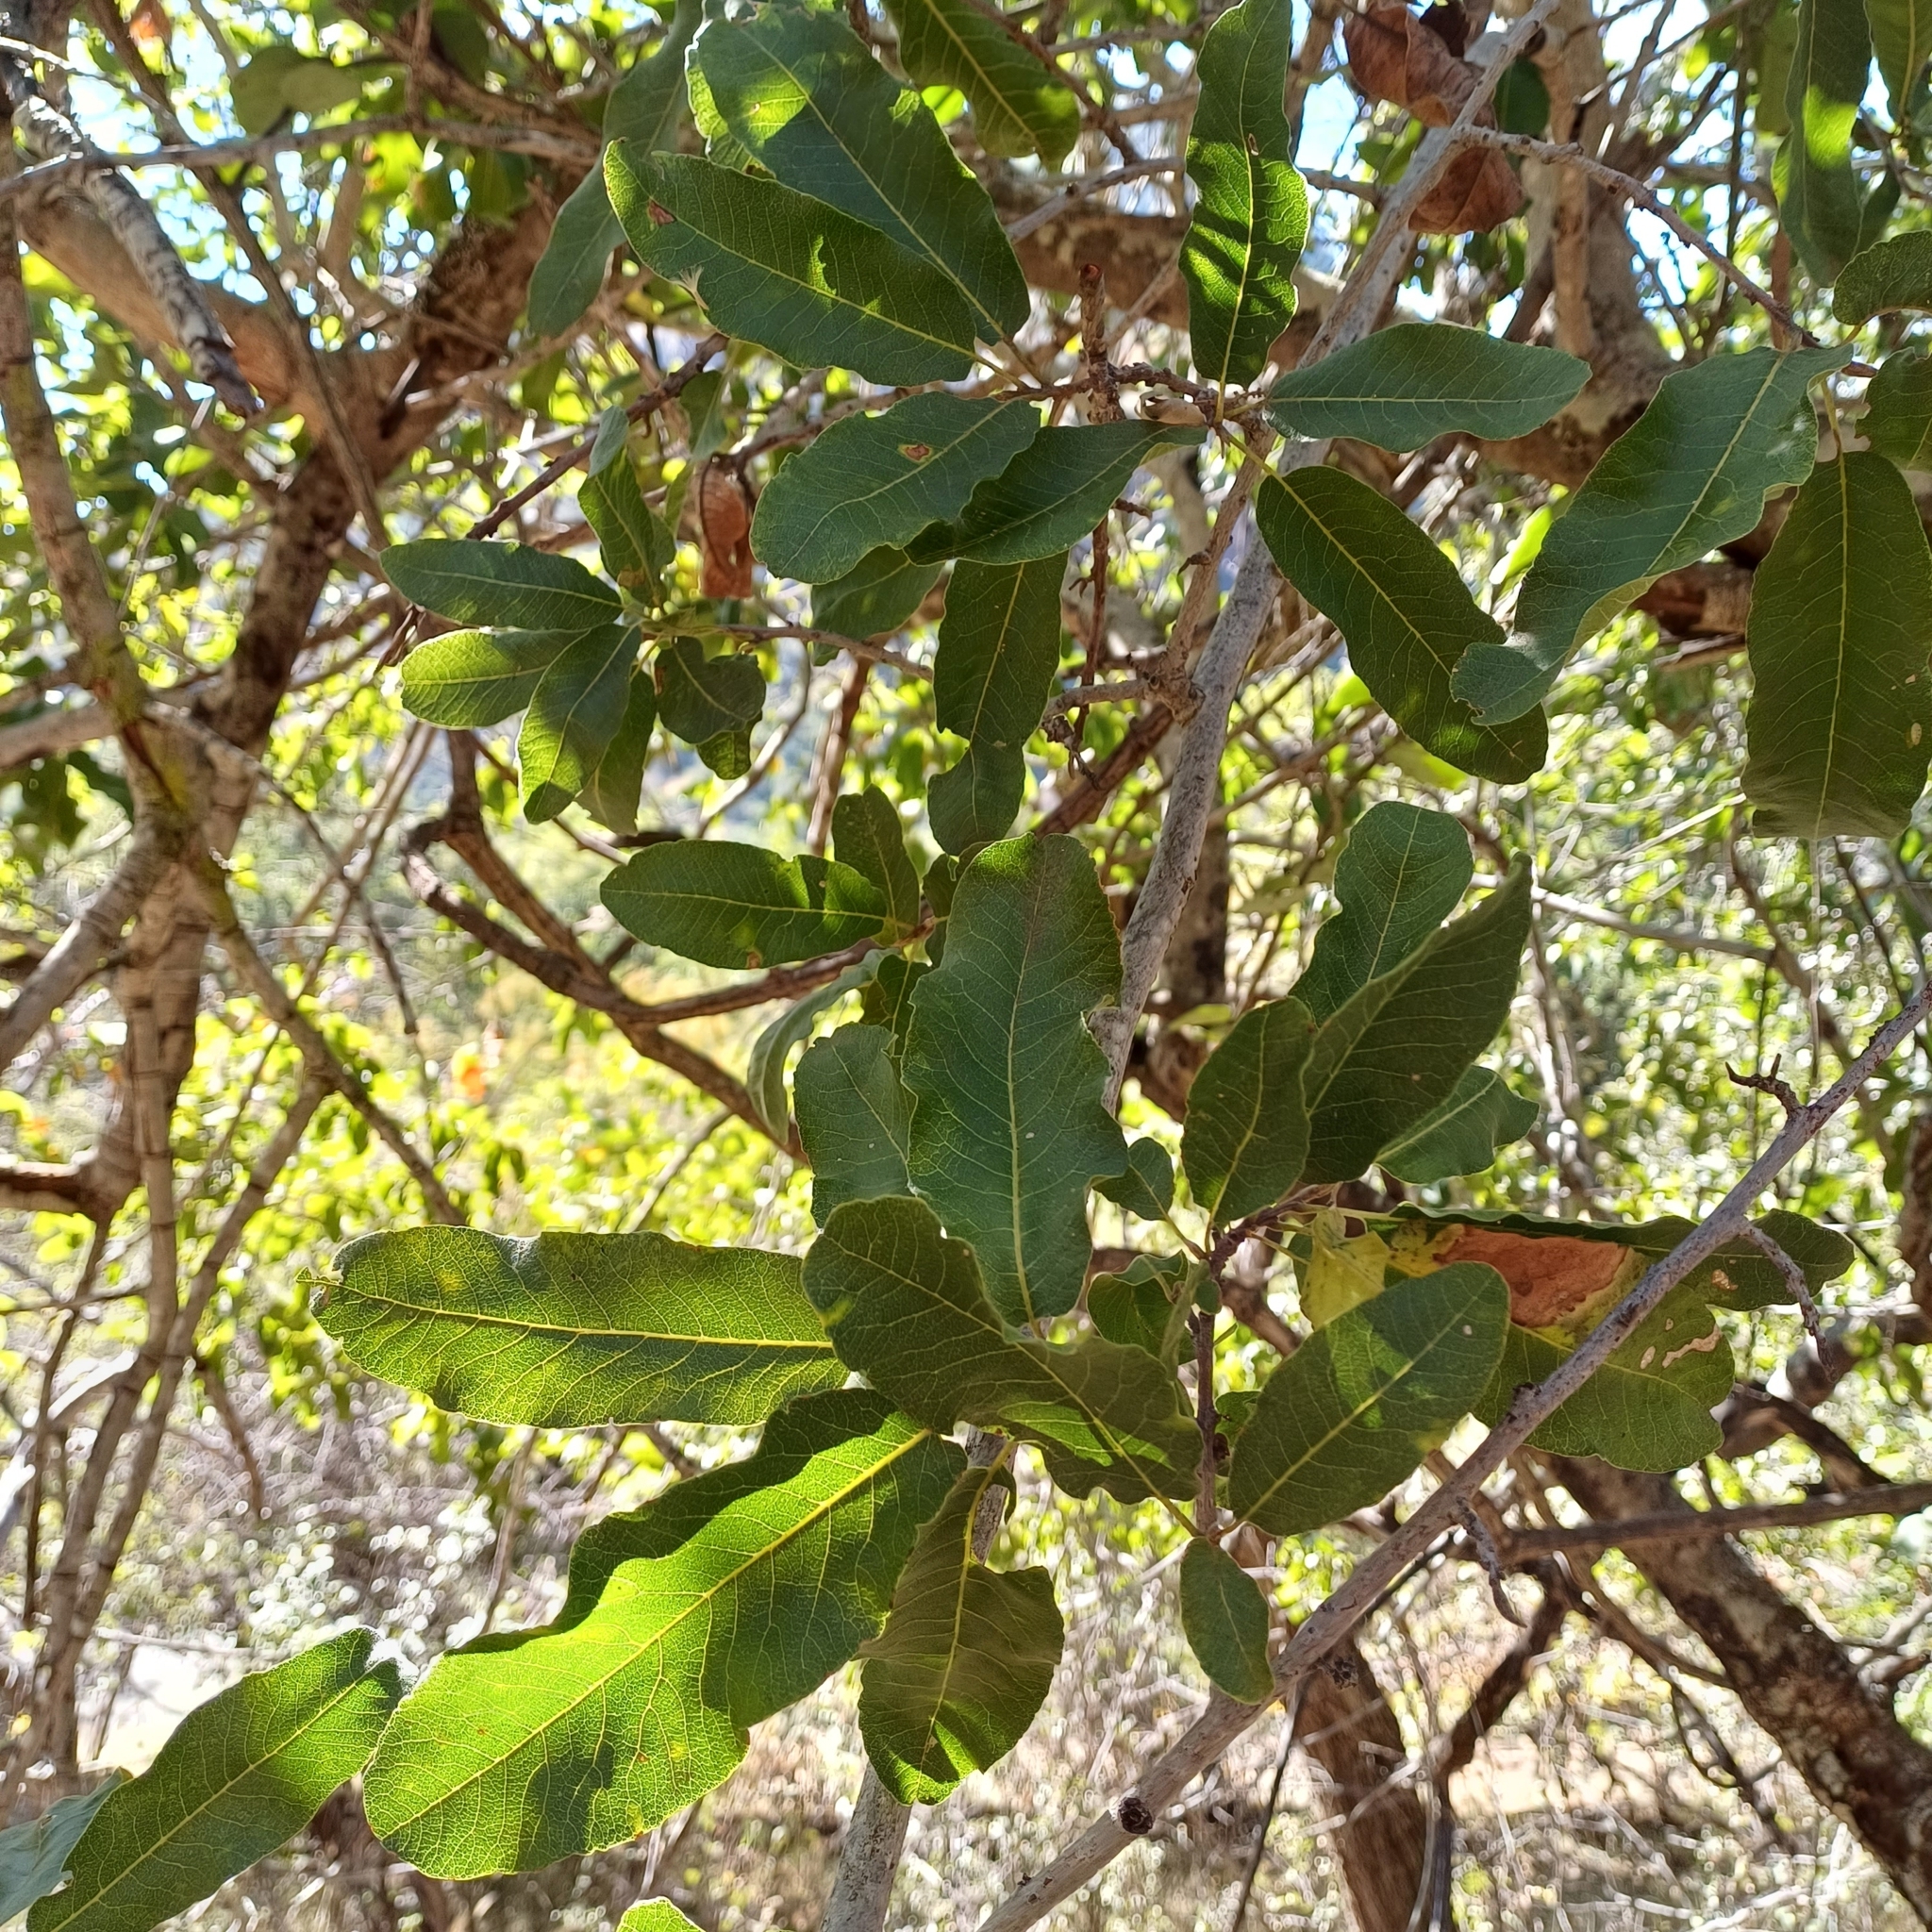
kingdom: Plantae
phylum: Tracheophyta
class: Magnoliopsida
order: Sapindales
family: Sapindaceae
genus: Pappea
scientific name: Pappea capensis
